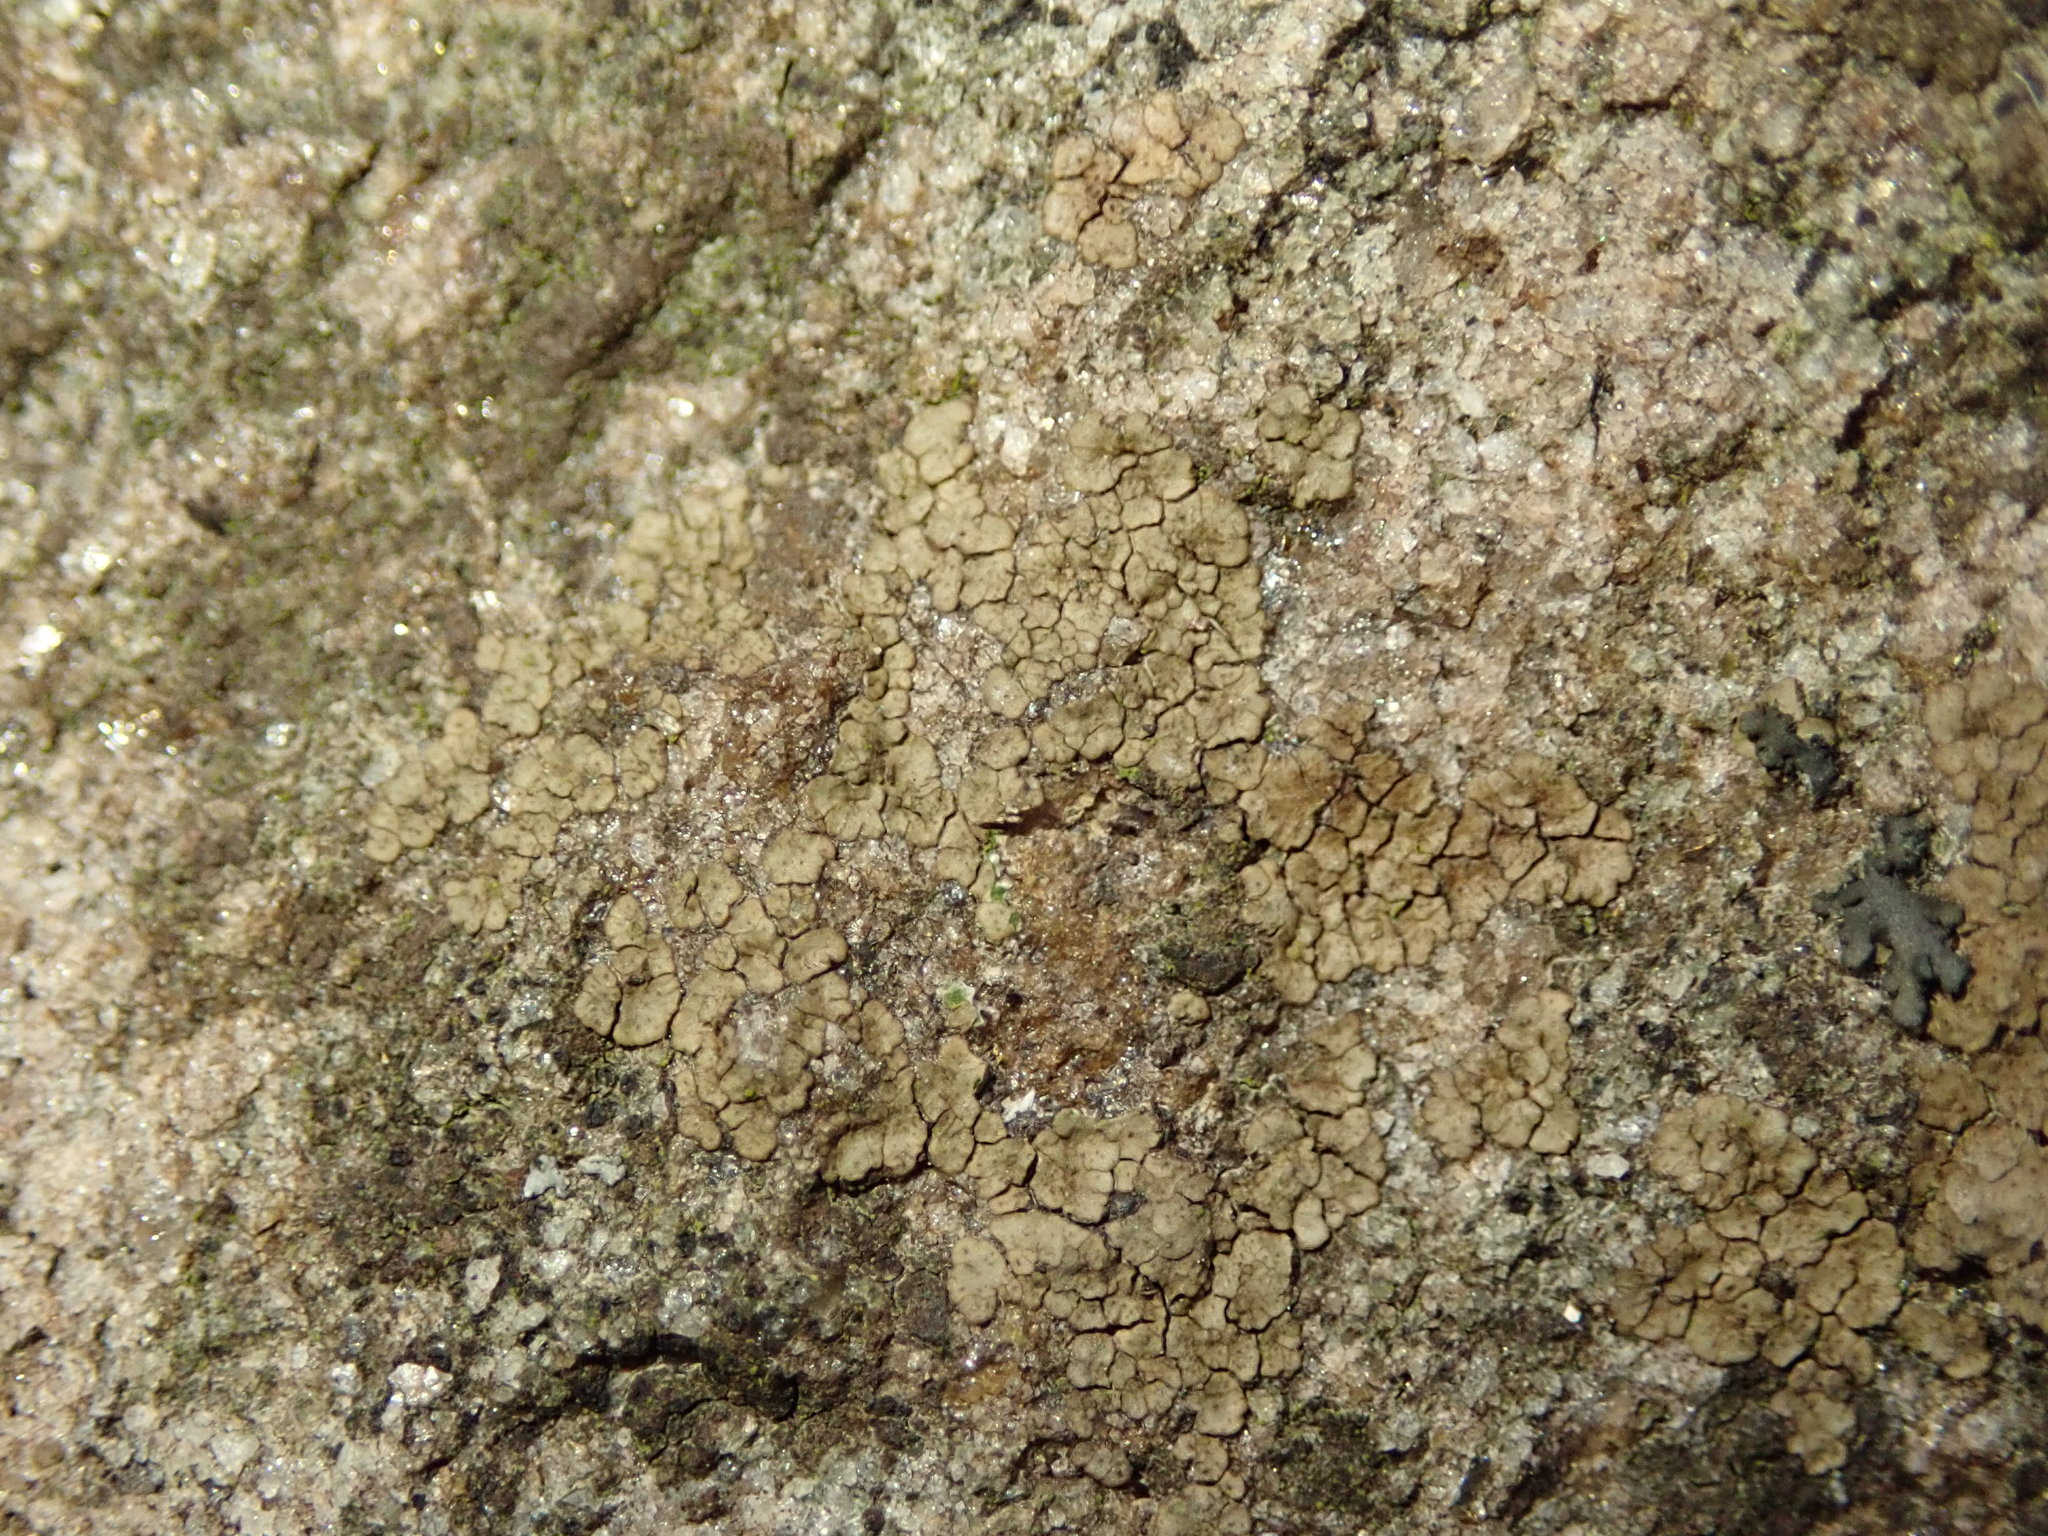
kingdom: Fungi
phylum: Ascomycota
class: Lecanoromycetes
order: Acarosporales
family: Acarosporaceae
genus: Acarospora
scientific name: Acarospora fuscata
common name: Brown cobblestone lichen
